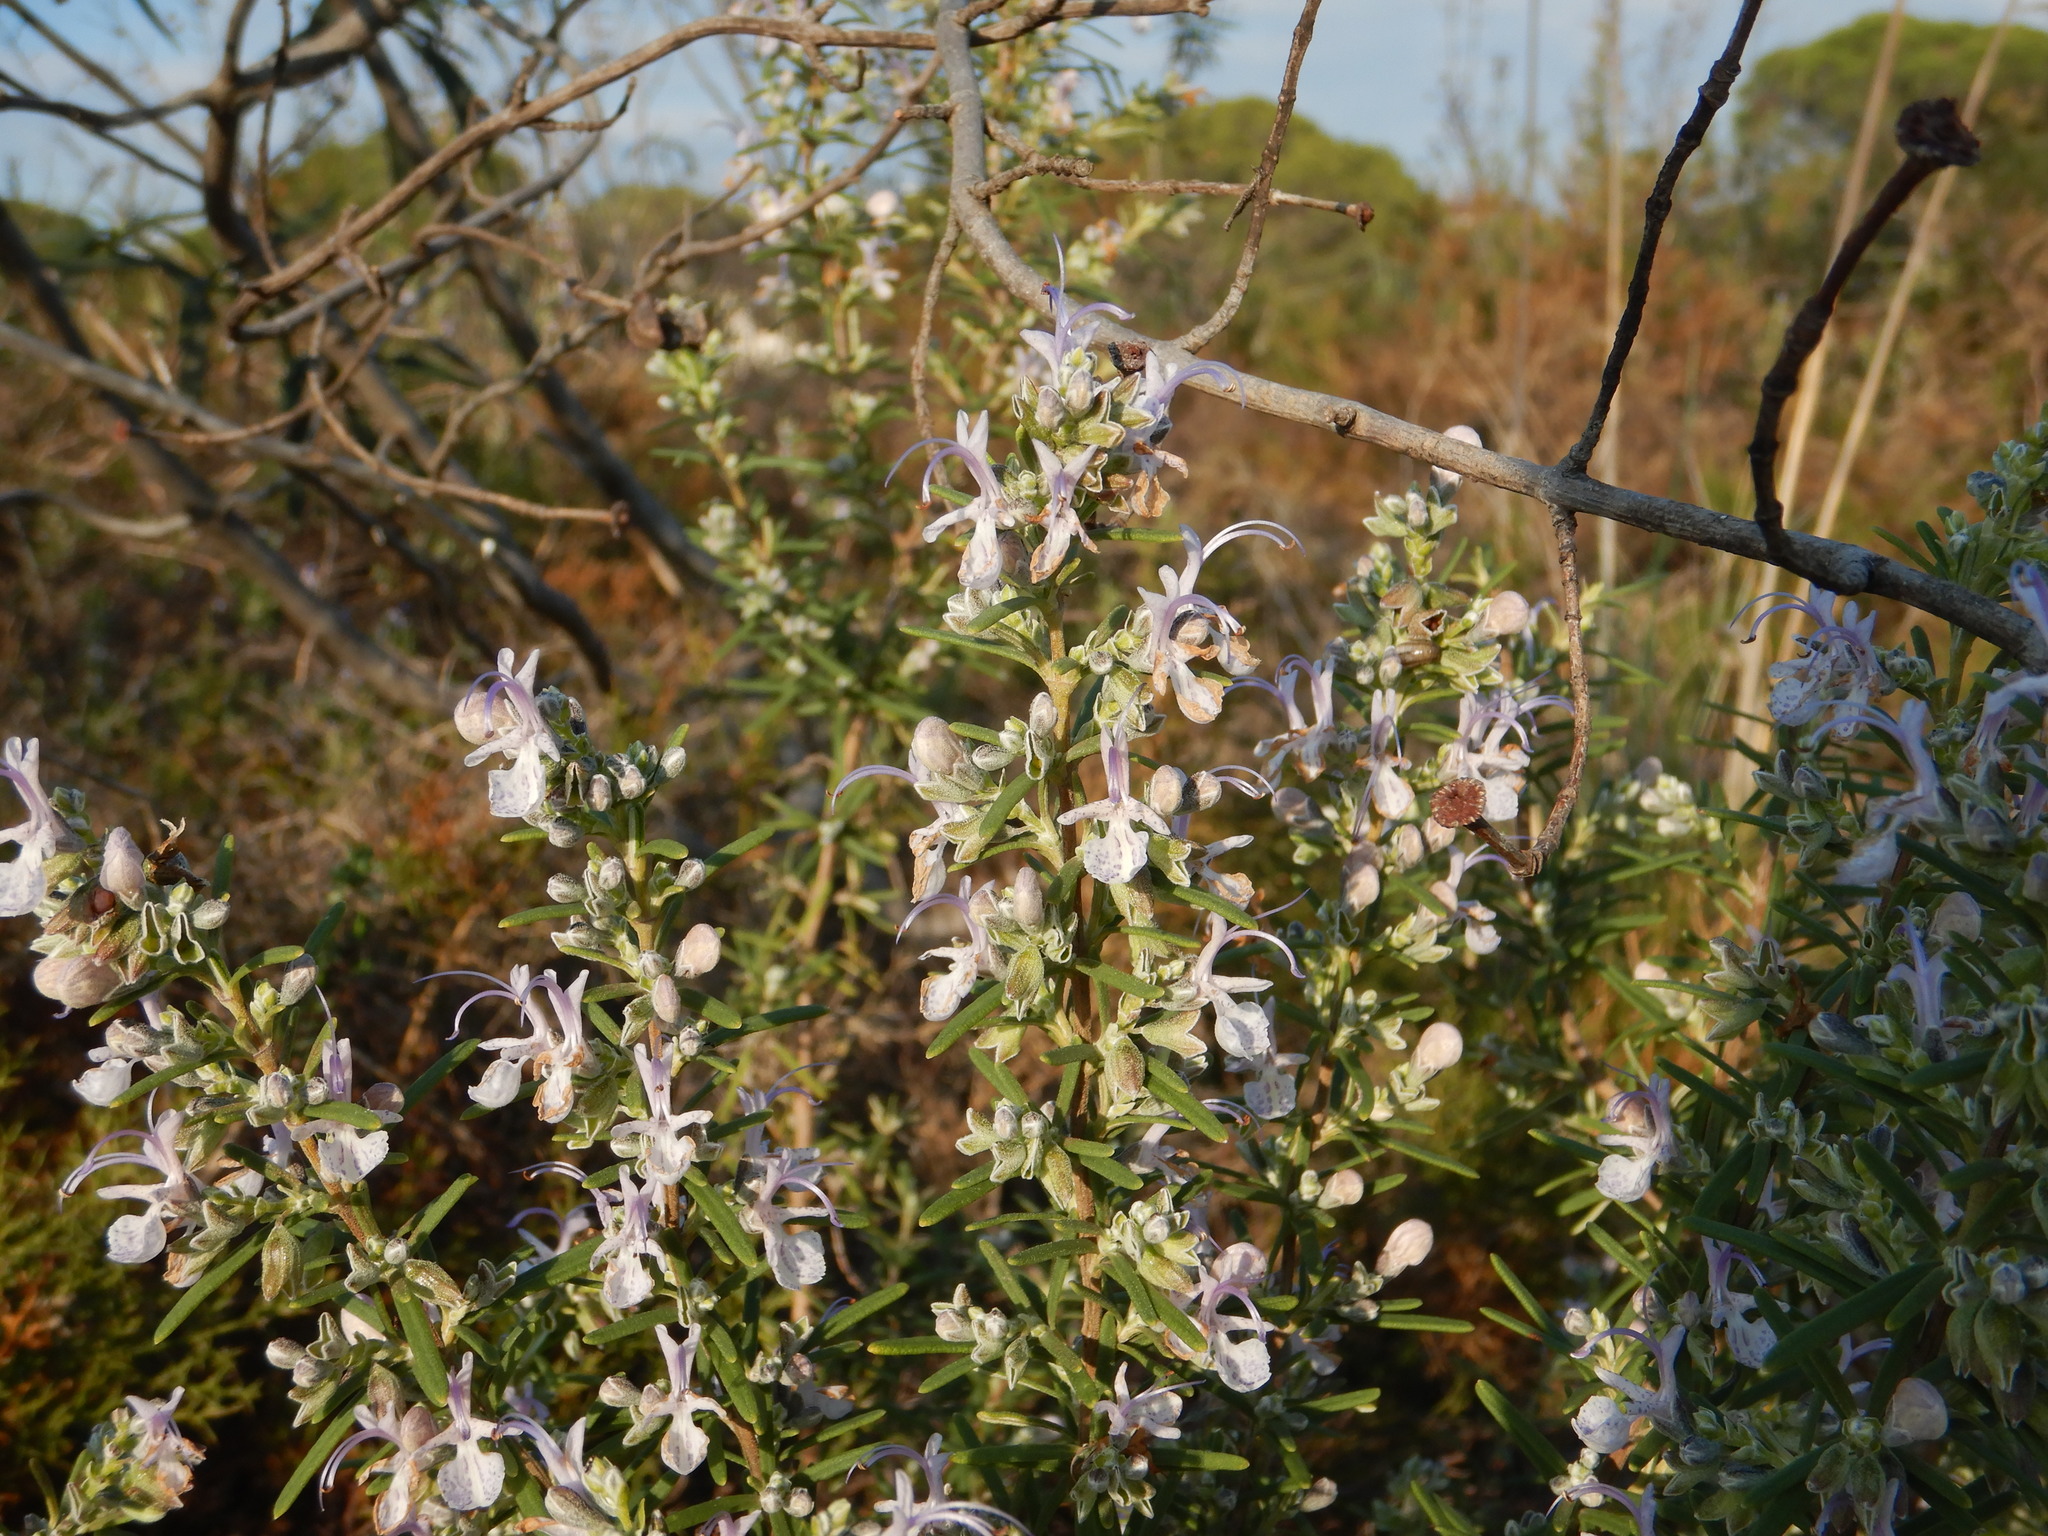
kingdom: Plantae
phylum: Tracheophyta
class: Magnoliopsida
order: Lamiales
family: Lamiaceae
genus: Salvia
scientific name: Salvia rosmarinus
